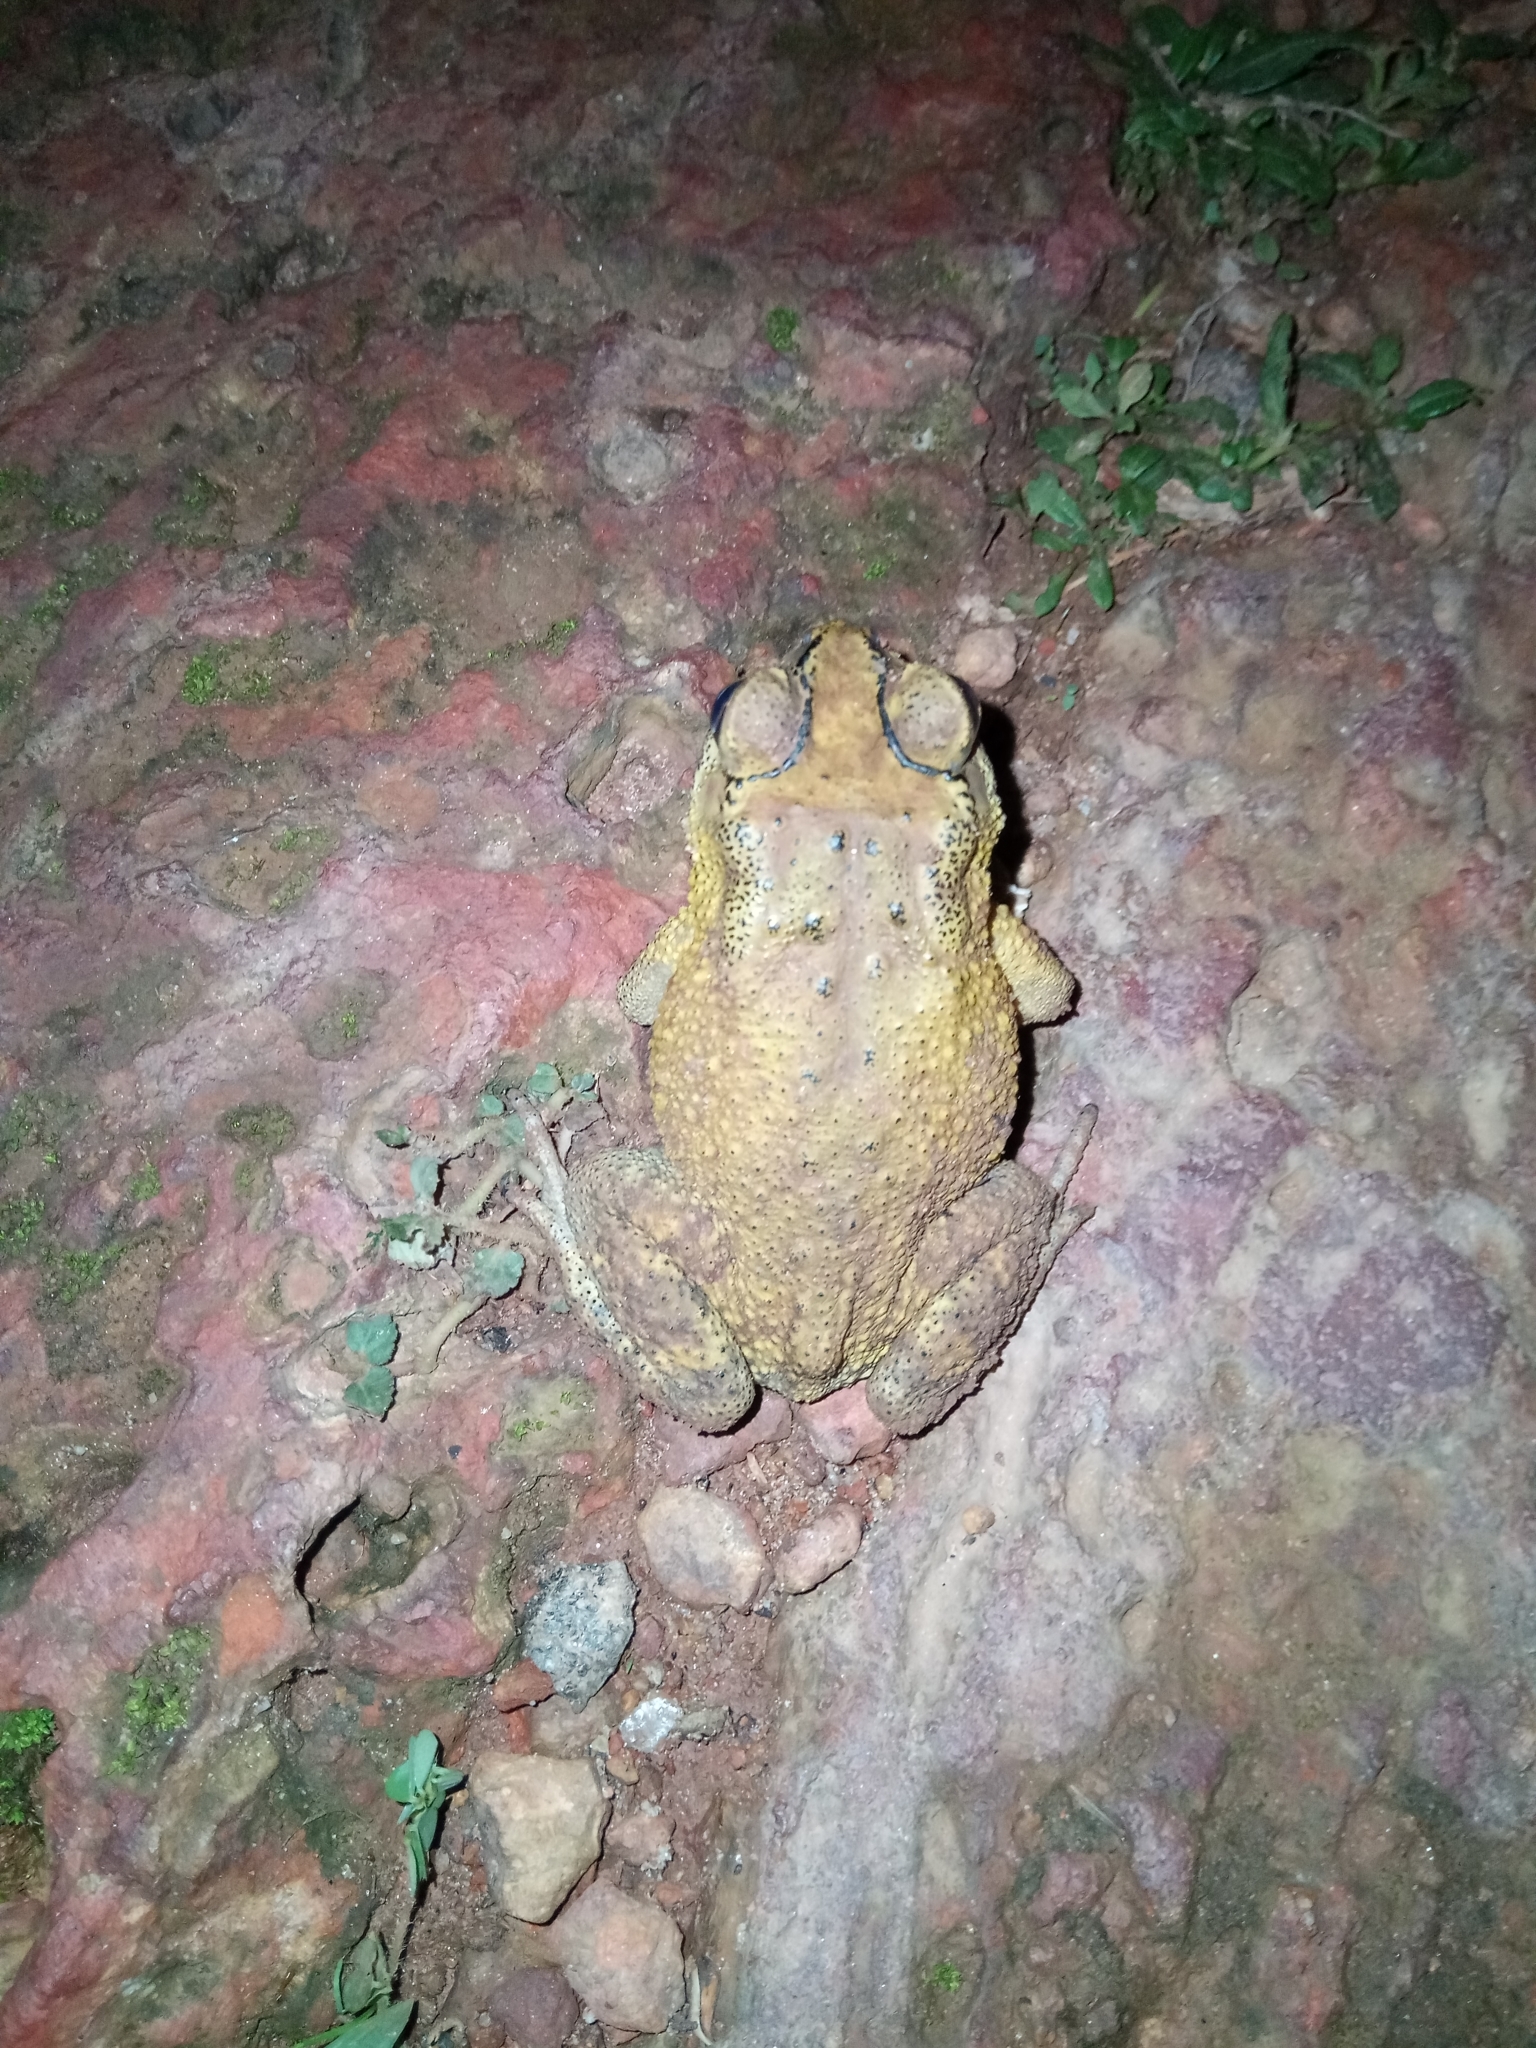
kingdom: Animalia
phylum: Chordata
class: Amphibia
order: Anura
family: Bufonidae
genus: Duttaphrynus
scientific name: Duttaphrynus melanostictus
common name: Common sunda toad
